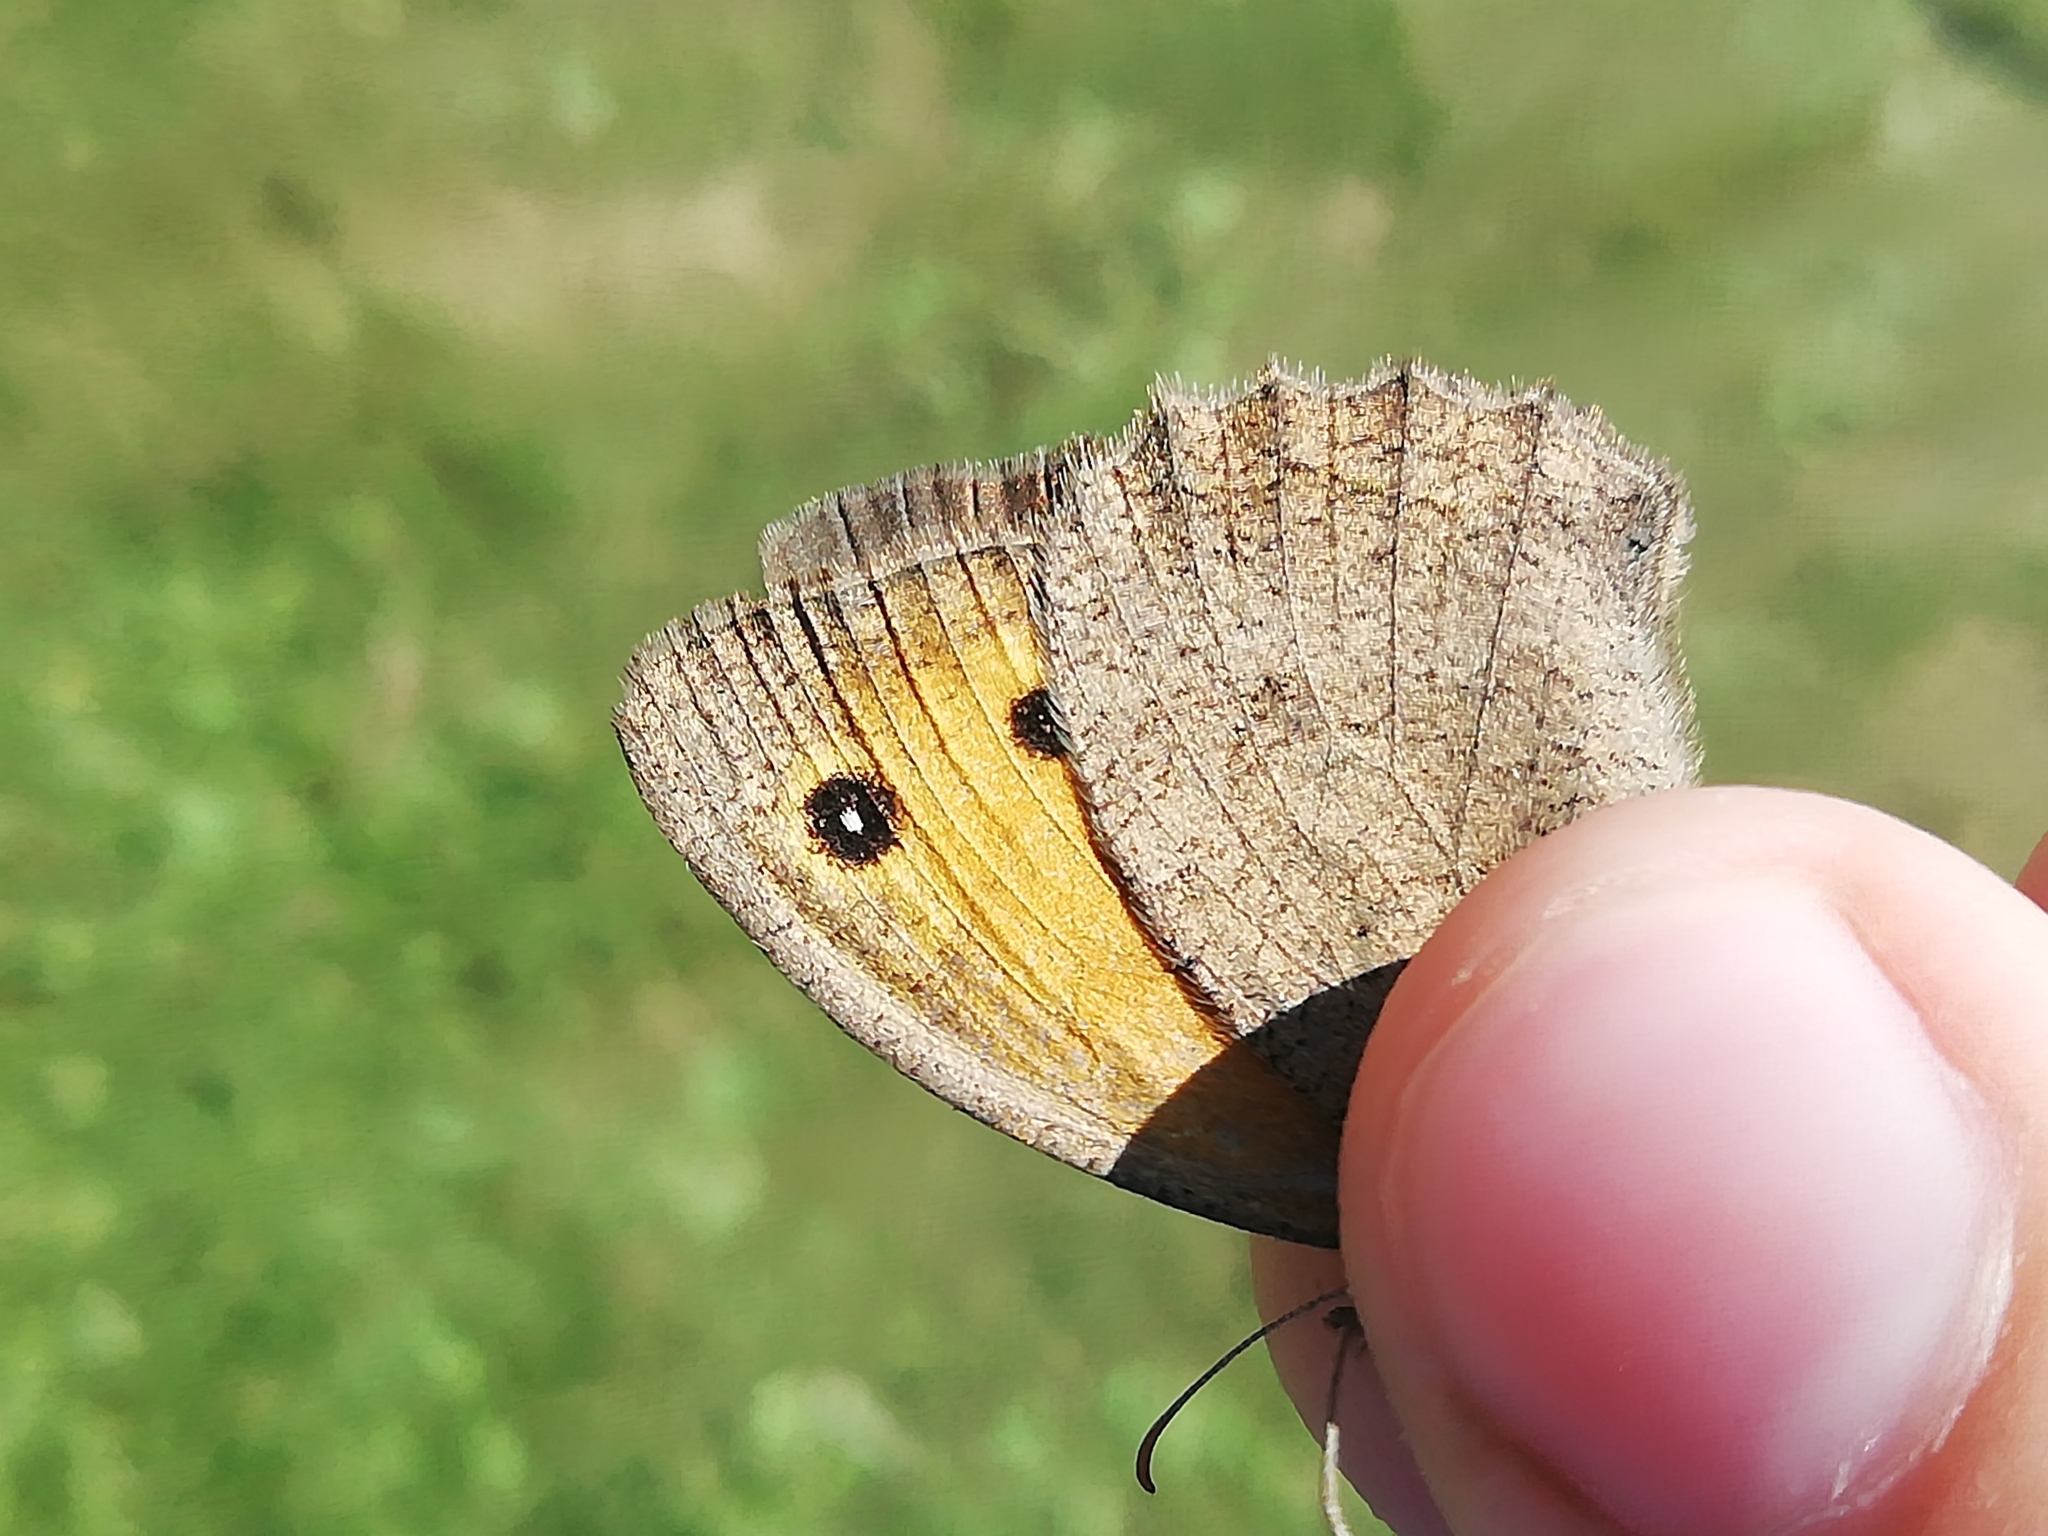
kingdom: Animalia
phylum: Arthropoda
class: Insecta
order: Lepidoptera
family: Nymphalidae
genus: Hyponephele
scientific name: Hyponephele lycaon
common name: Dusky meadow brown
